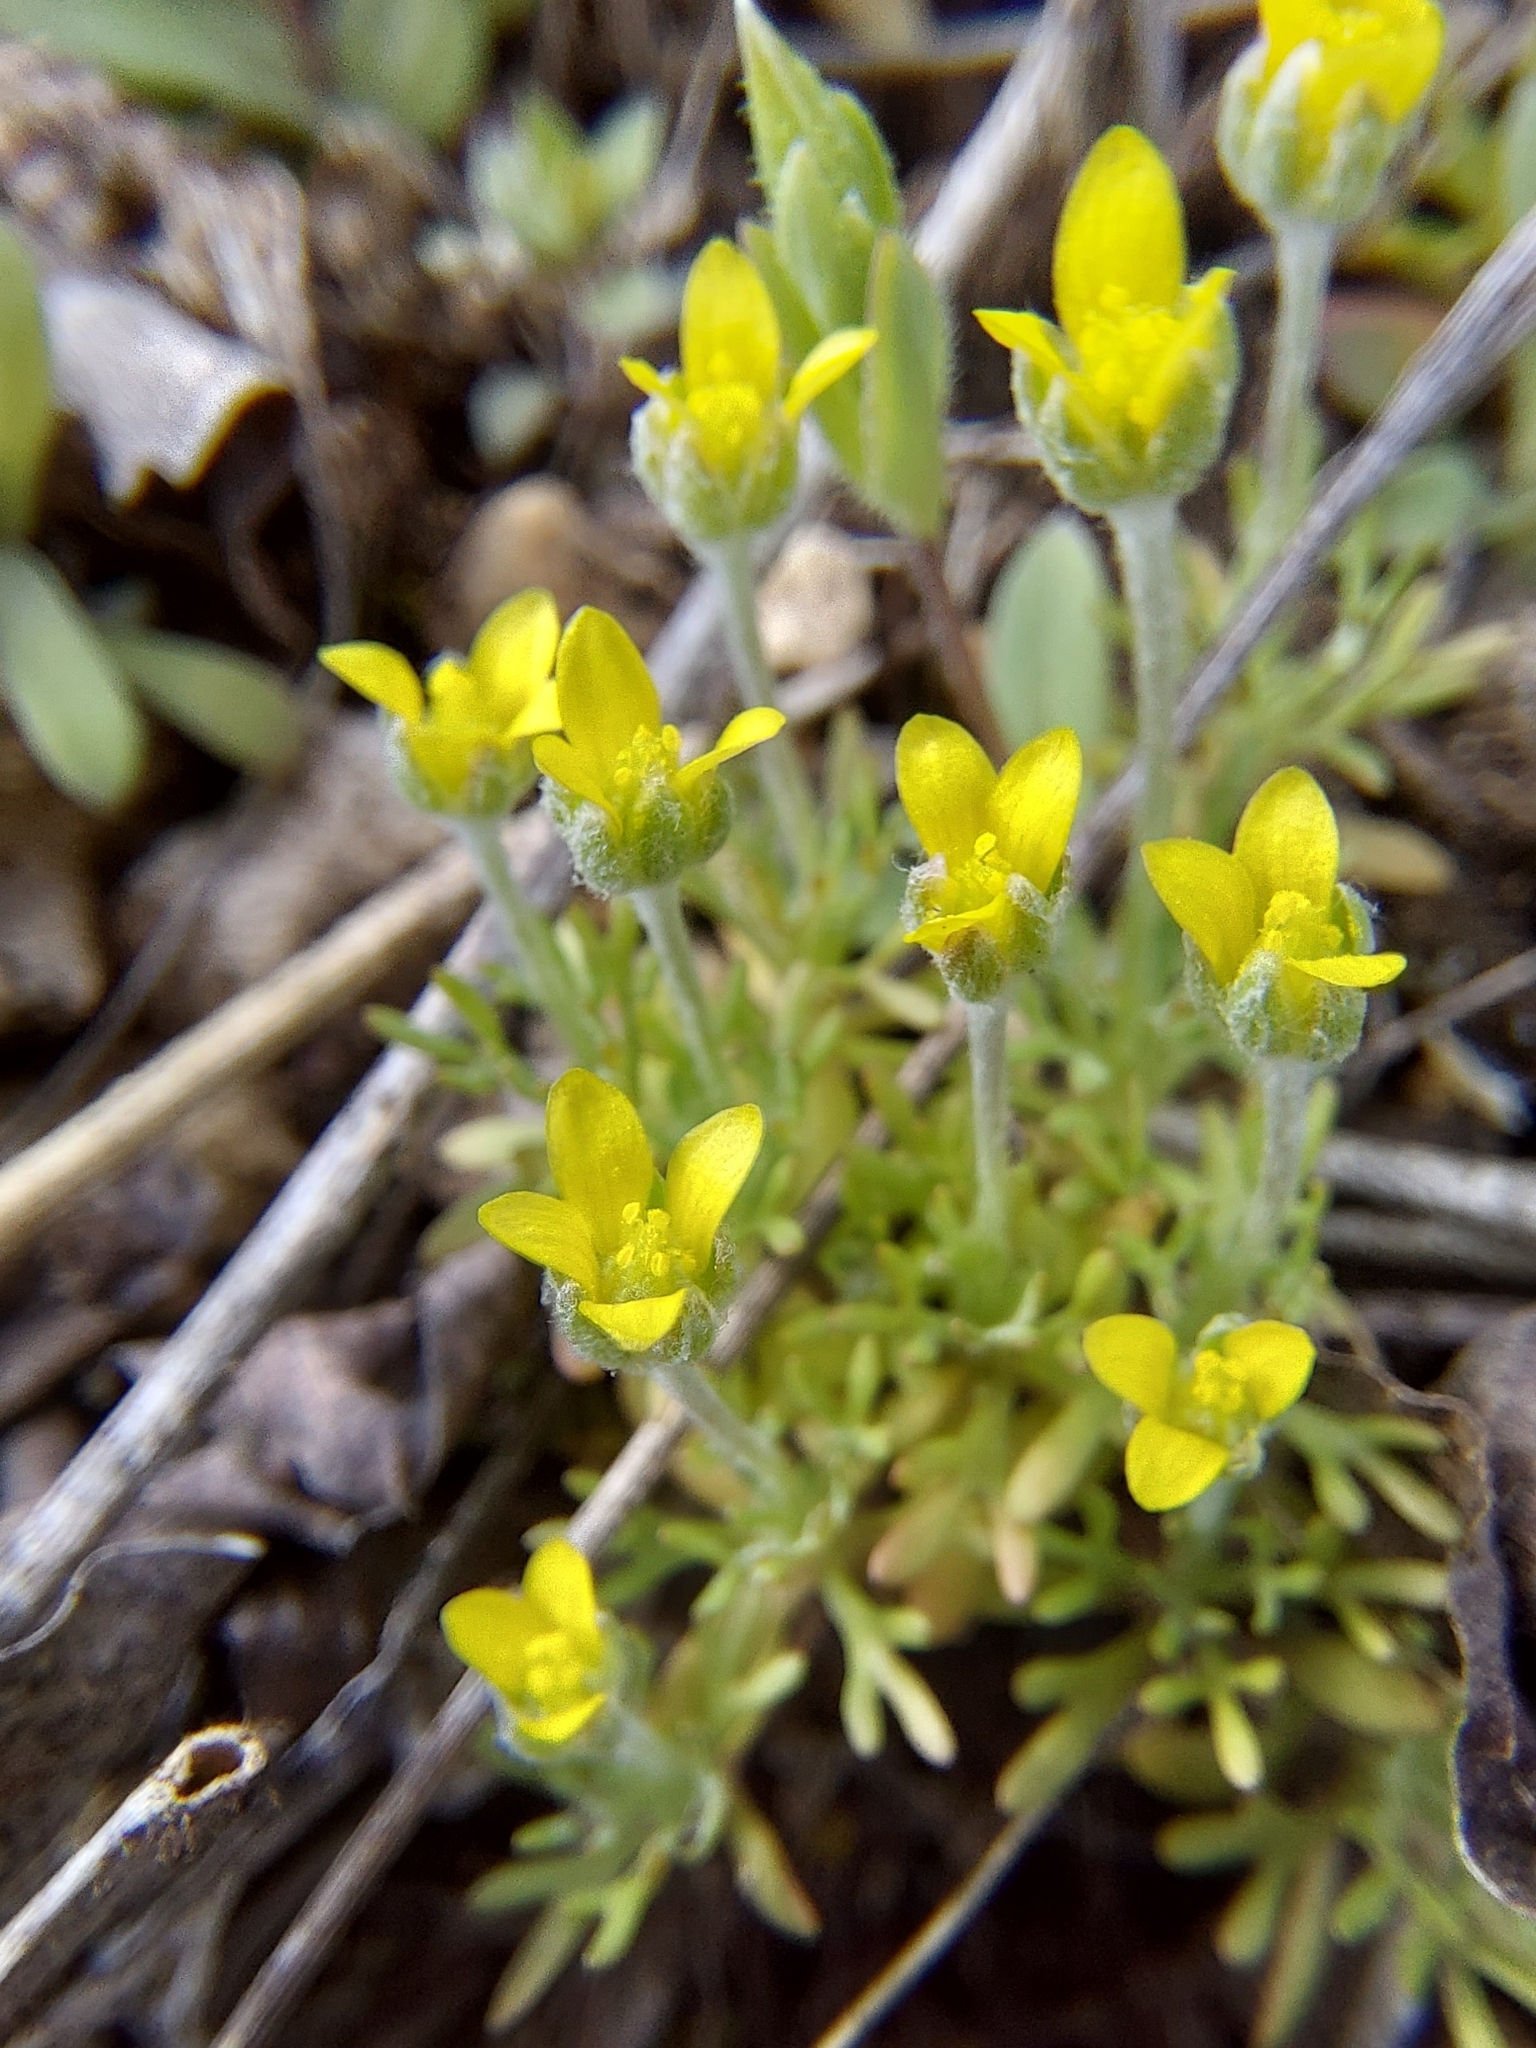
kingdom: Plantae
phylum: Tracheophyta
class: Magnoliopsida
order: Ranunculales
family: Ranunculaceae
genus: Ceratocephala
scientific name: Ceratocephala orthoceras
